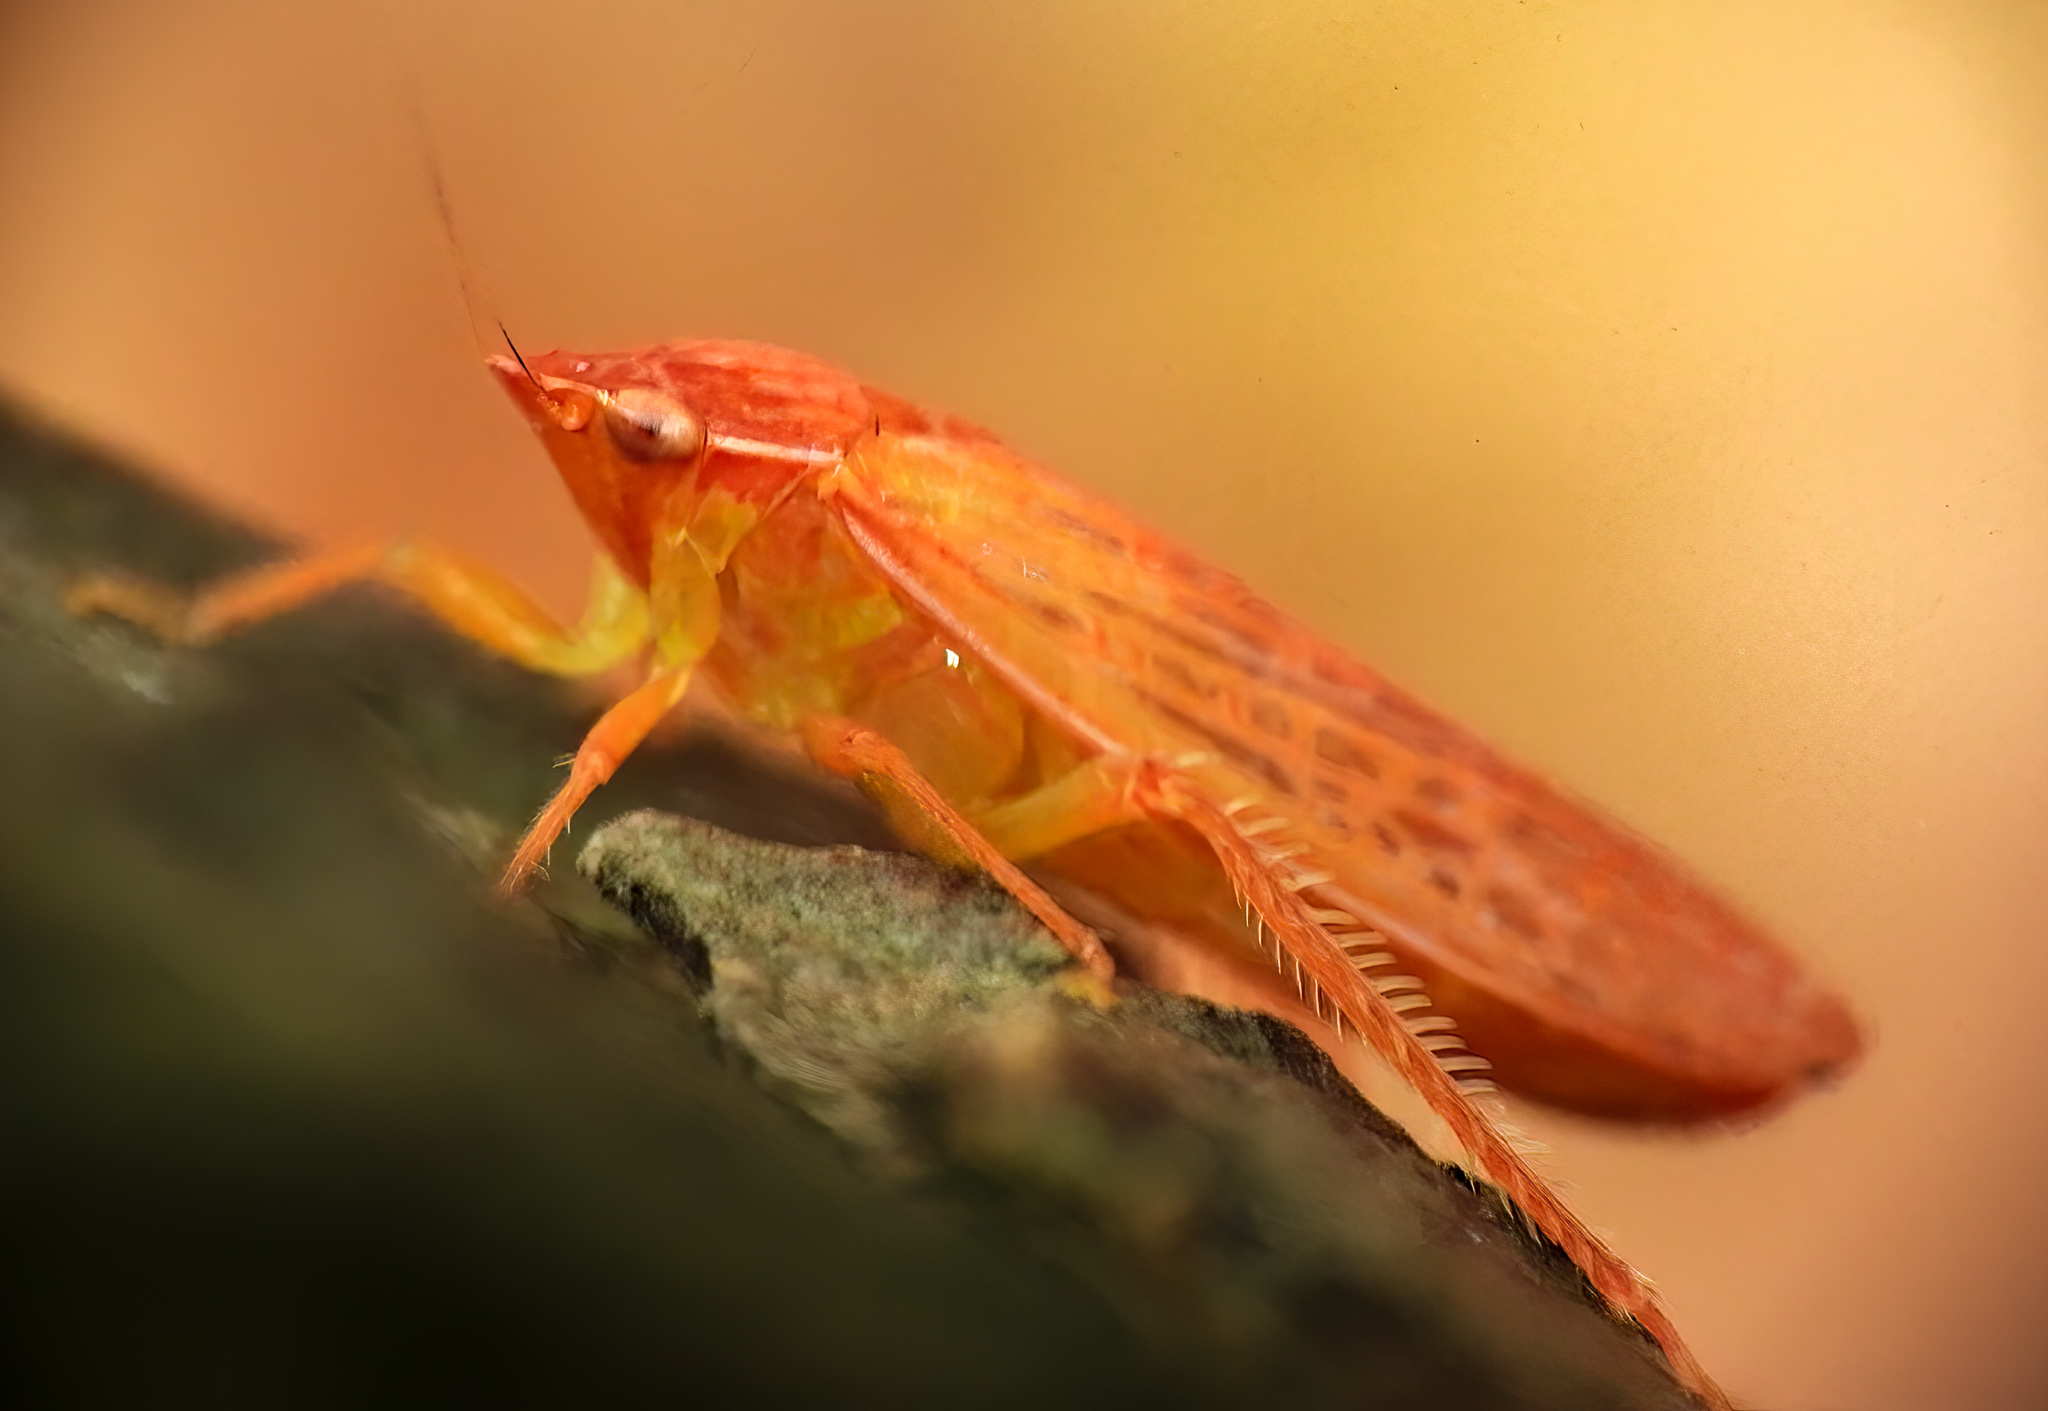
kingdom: Animalia
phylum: Arthropoda
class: Insecta
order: Hemiptera
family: Cicadellidae
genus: Gyponana
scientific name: Gyponana gladia
